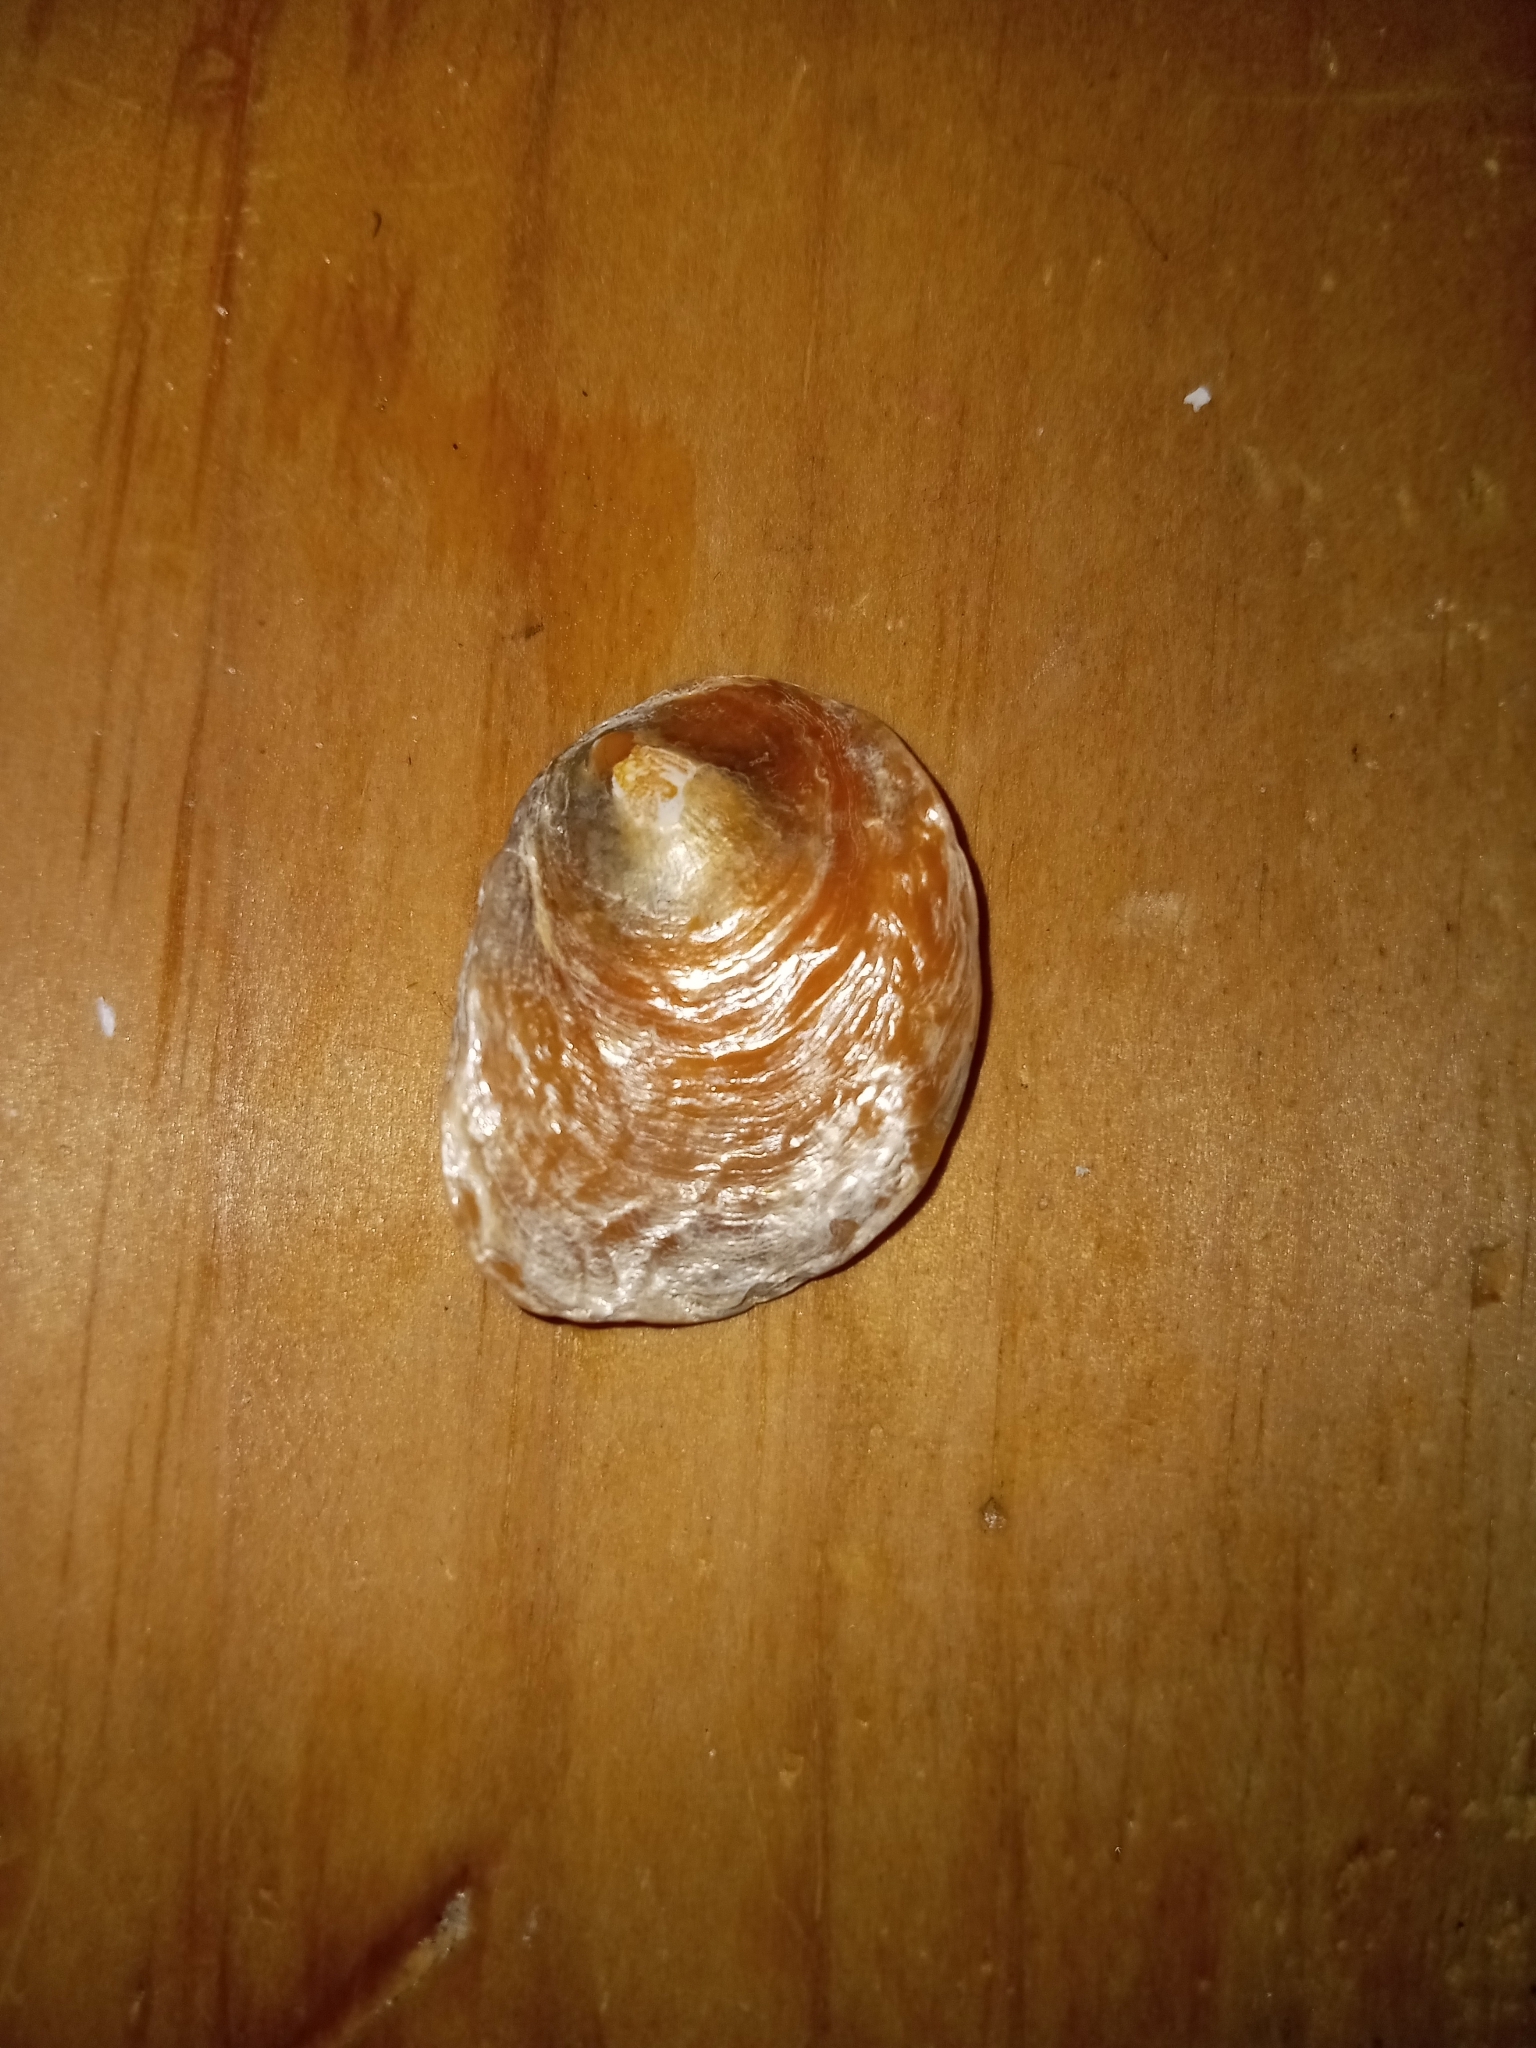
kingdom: Animalia
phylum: Mollusca
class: Bivalvia
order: Pectinida
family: Anomiidae
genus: Anomia
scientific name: Anomia simplex
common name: Common jingle shell
